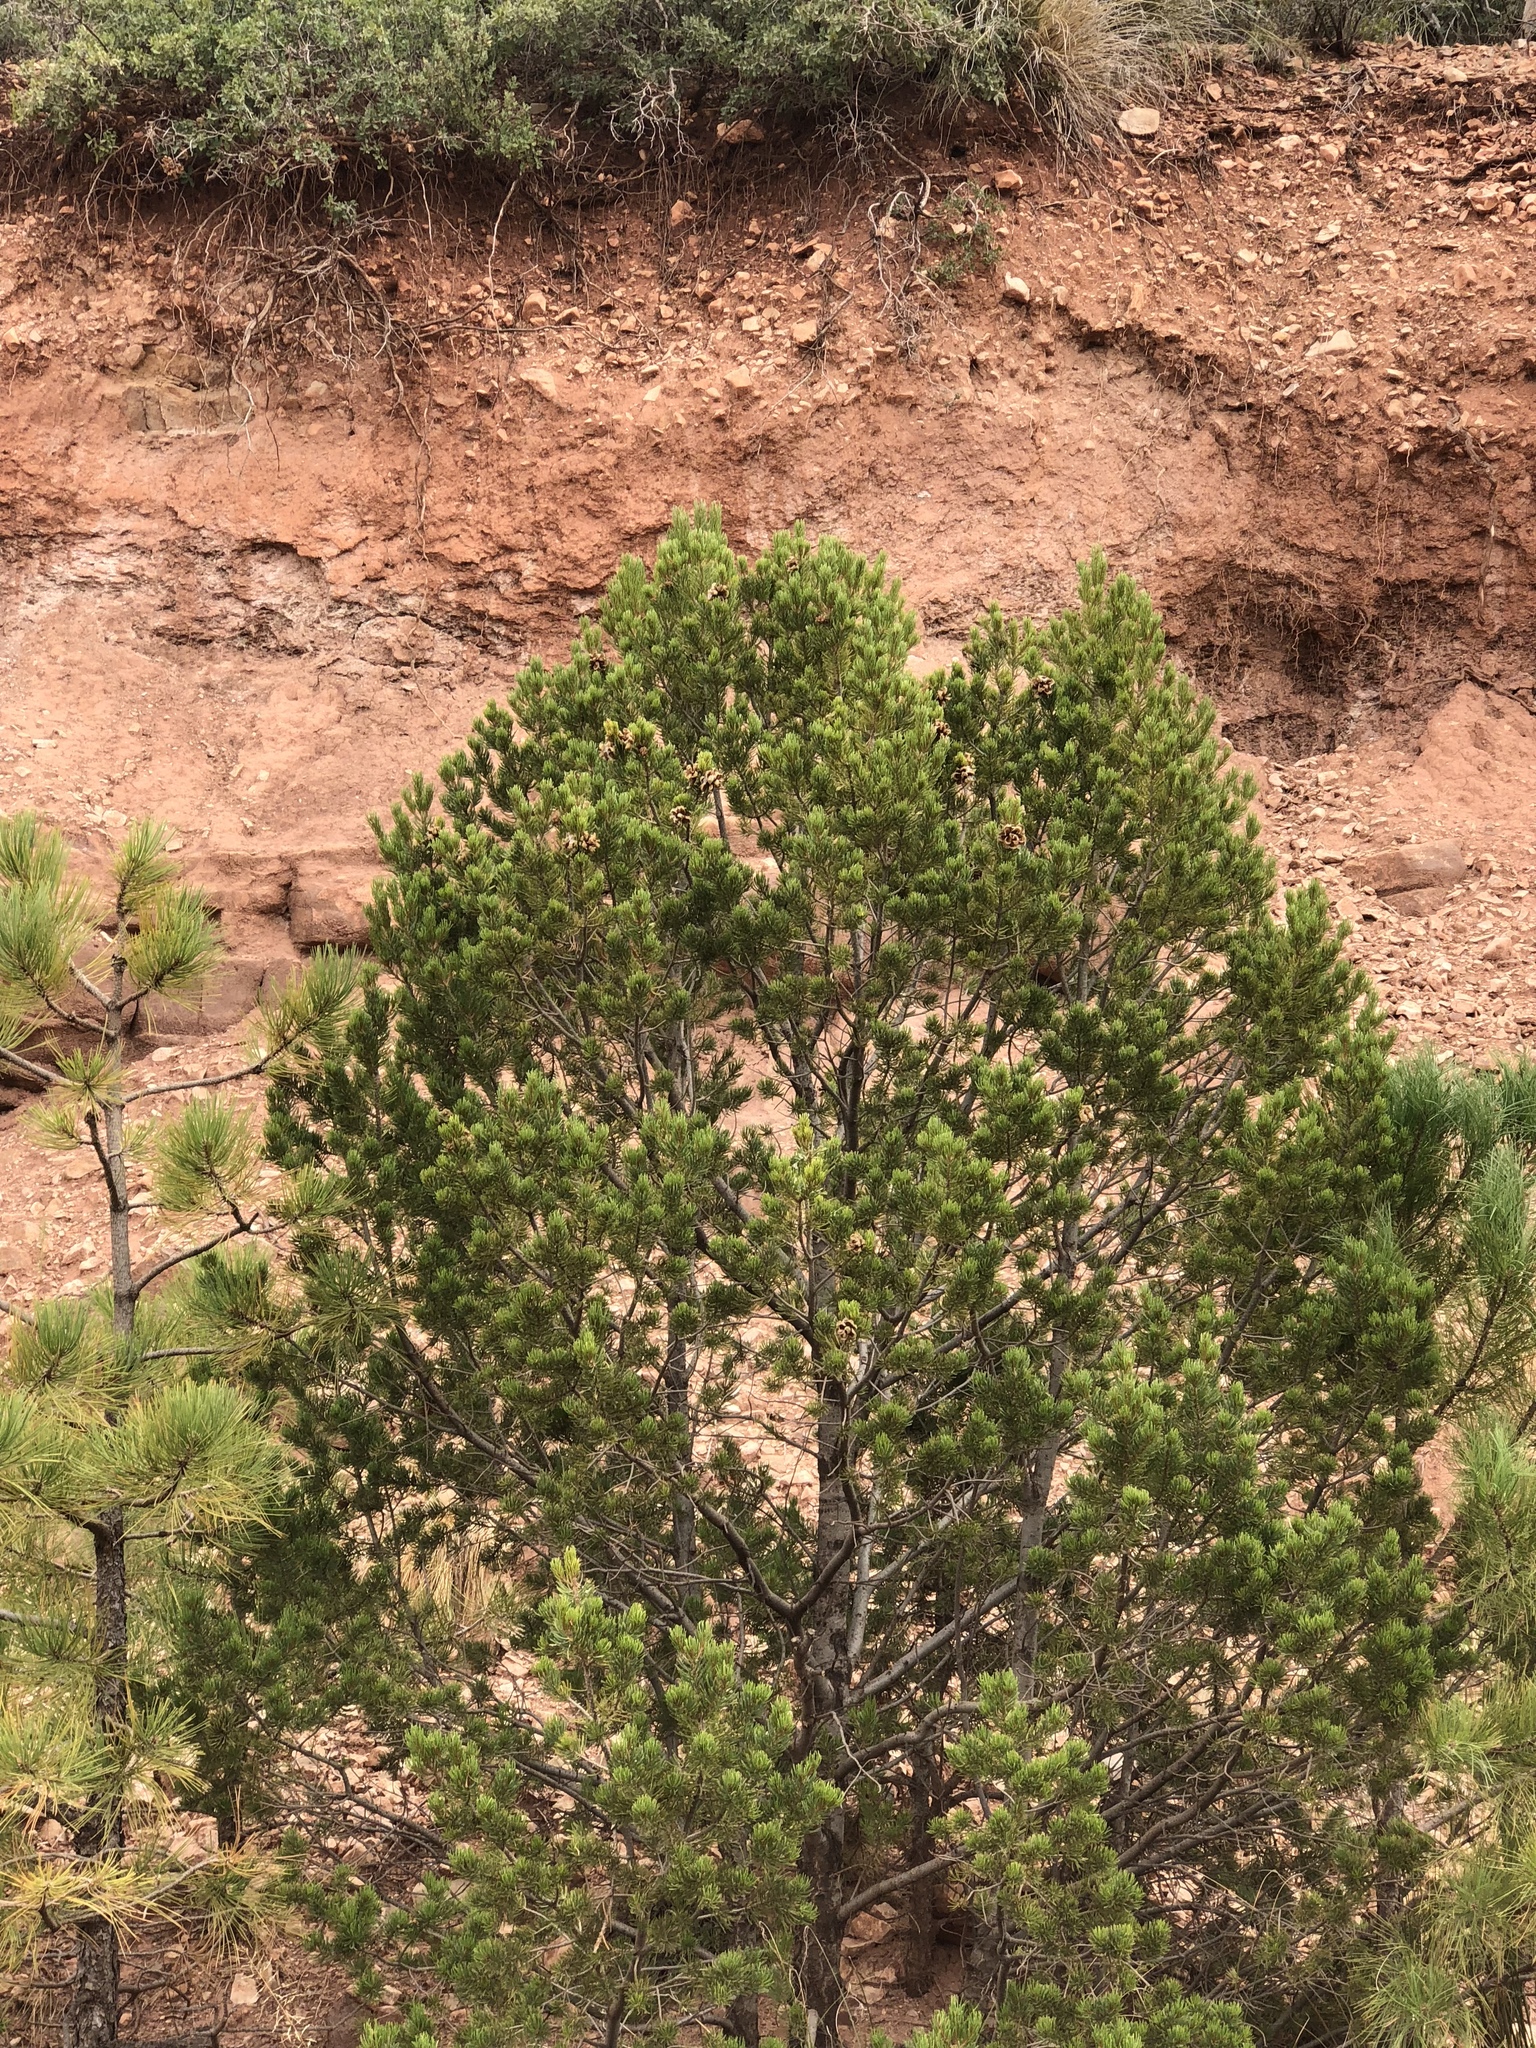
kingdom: Plantae
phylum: Tracheophyta
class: Pinopsida
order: Pinales
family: Pinaceae
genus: Pinus
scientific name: Pinus edulis
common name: Colorado pinyon
